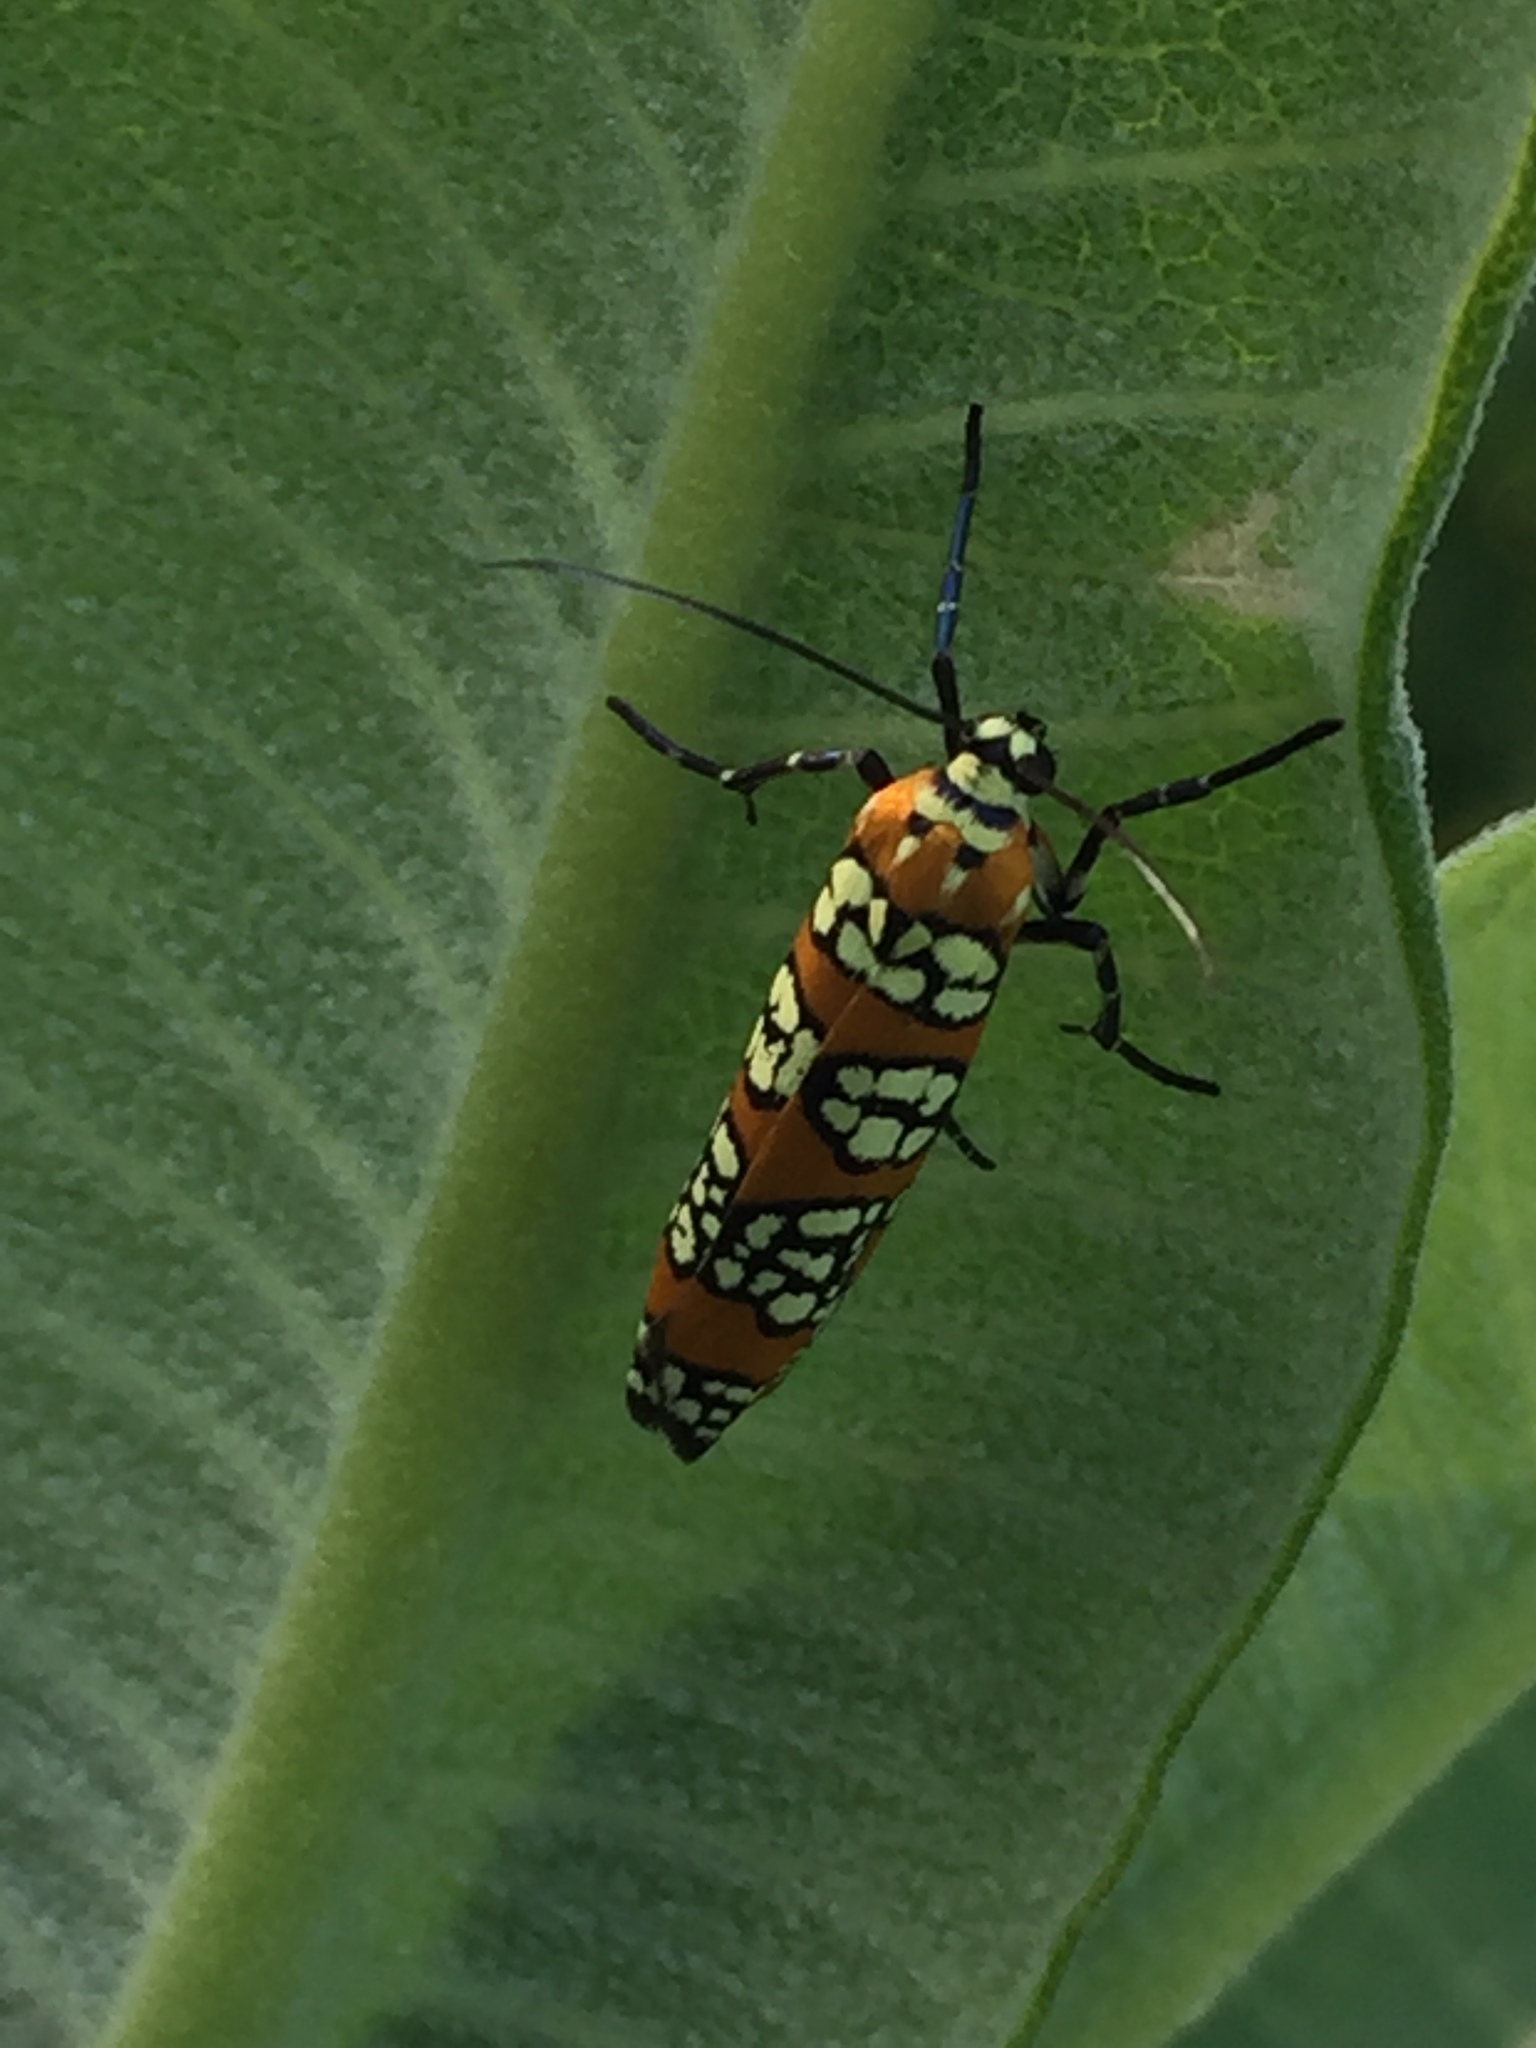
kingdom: Animalia
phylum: Arthropoda
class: Insecta
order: Lepidoptera
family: Attevidae
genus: Atteva
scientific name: Atteva punctella
